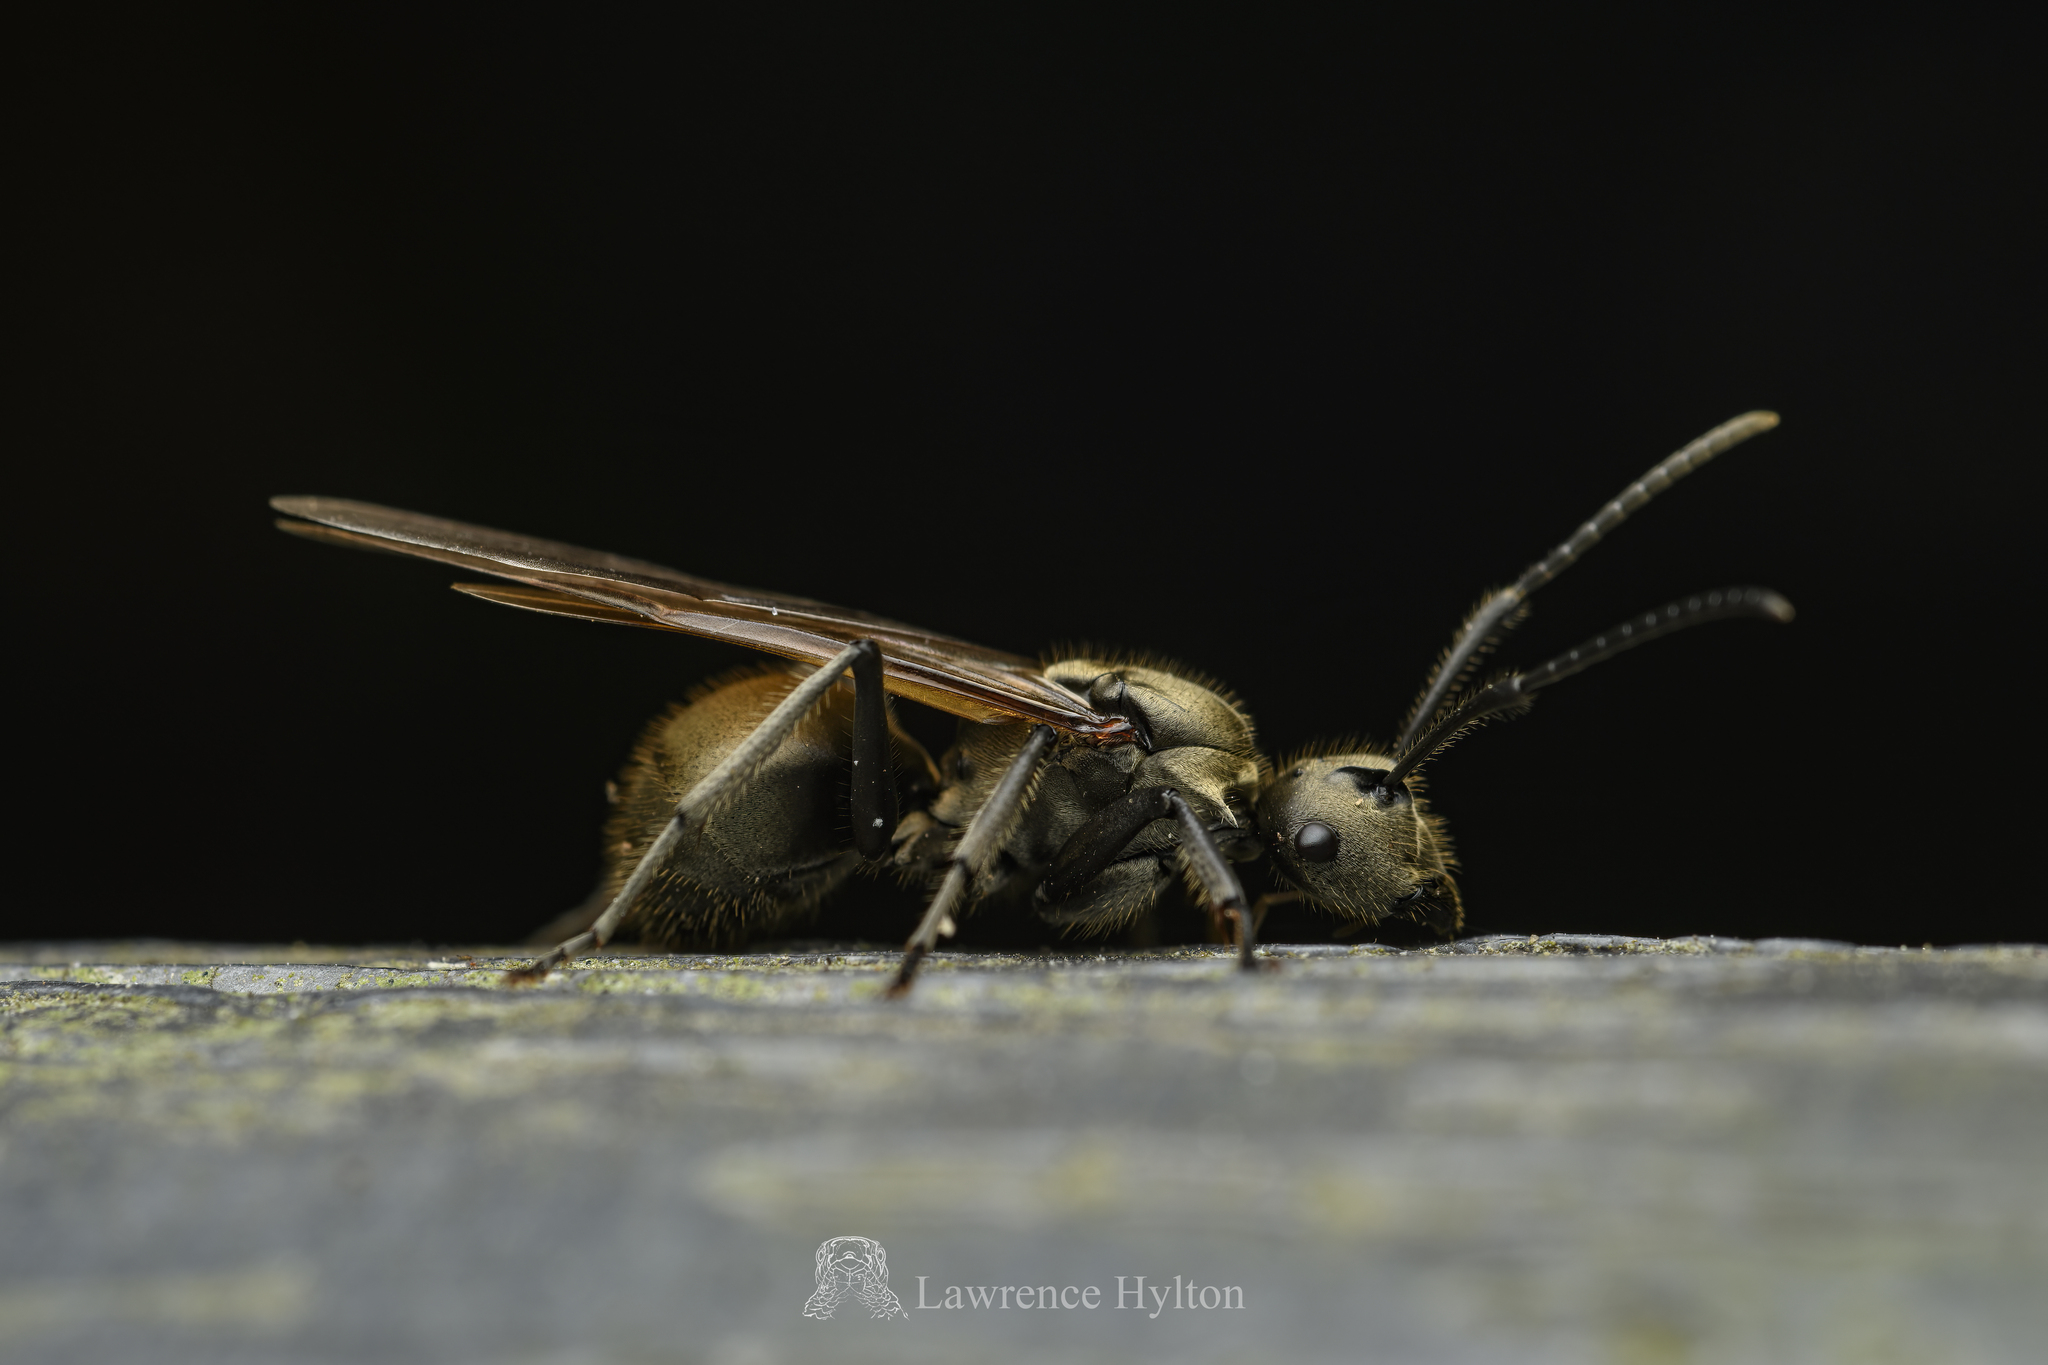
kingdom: Animalia
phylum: Arthropoda
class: Insecta
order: Hymenoptera
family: Formicidae
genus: Polyrhachis
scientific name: Polyrhachis vigilans
